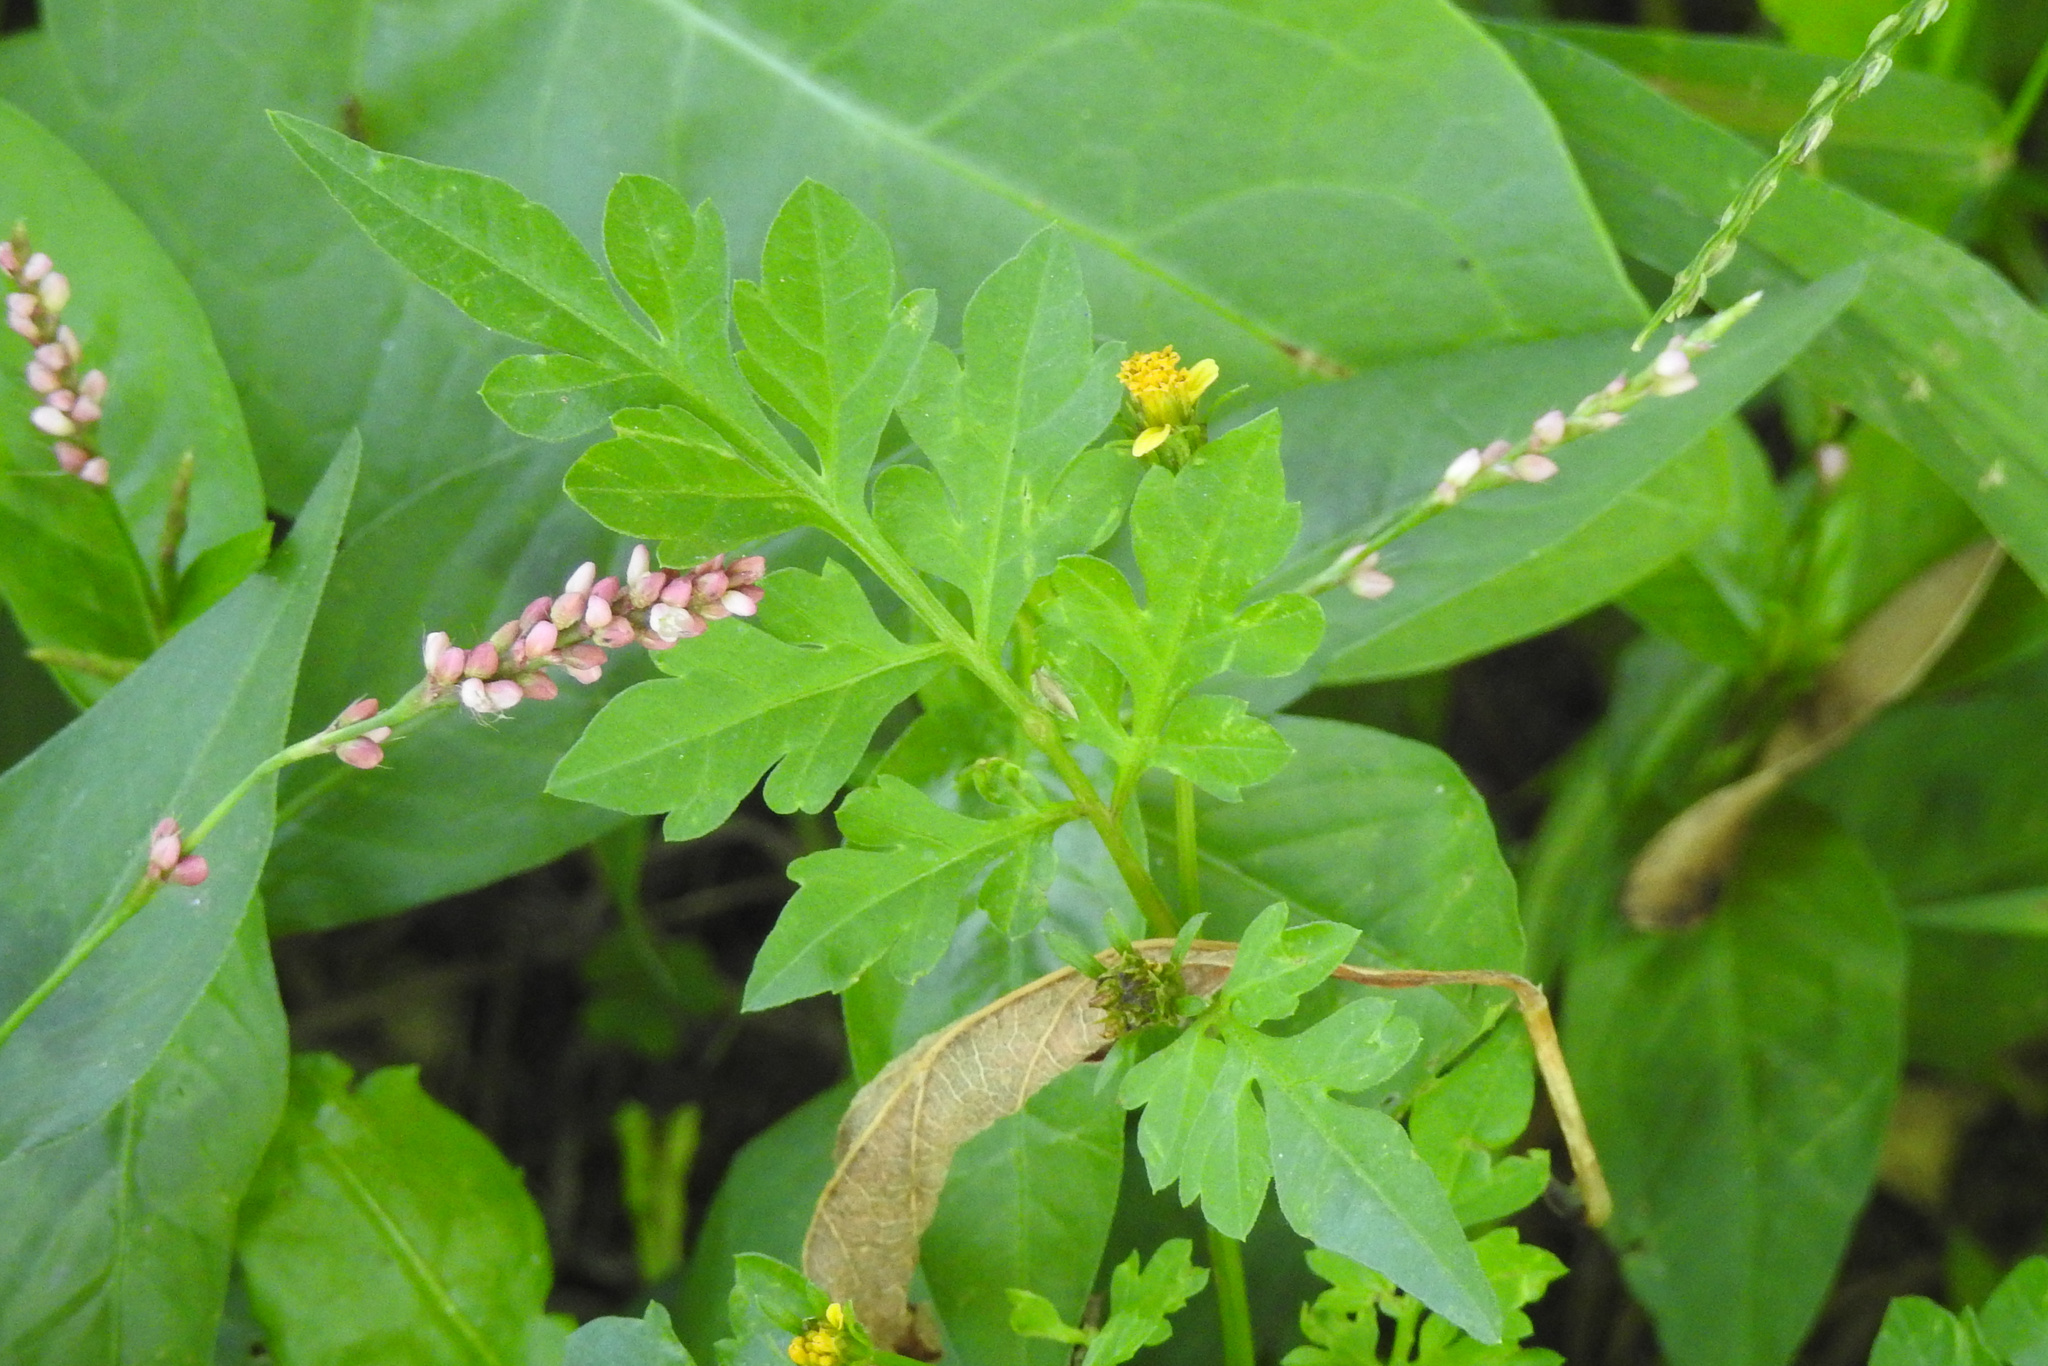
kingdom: Plantae
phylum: Tracheophyta
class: Magnoliopsida
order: Asterales
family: Asteraceae
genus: Bidens
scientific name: Bidens bipinnata
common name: Spanish-needles
